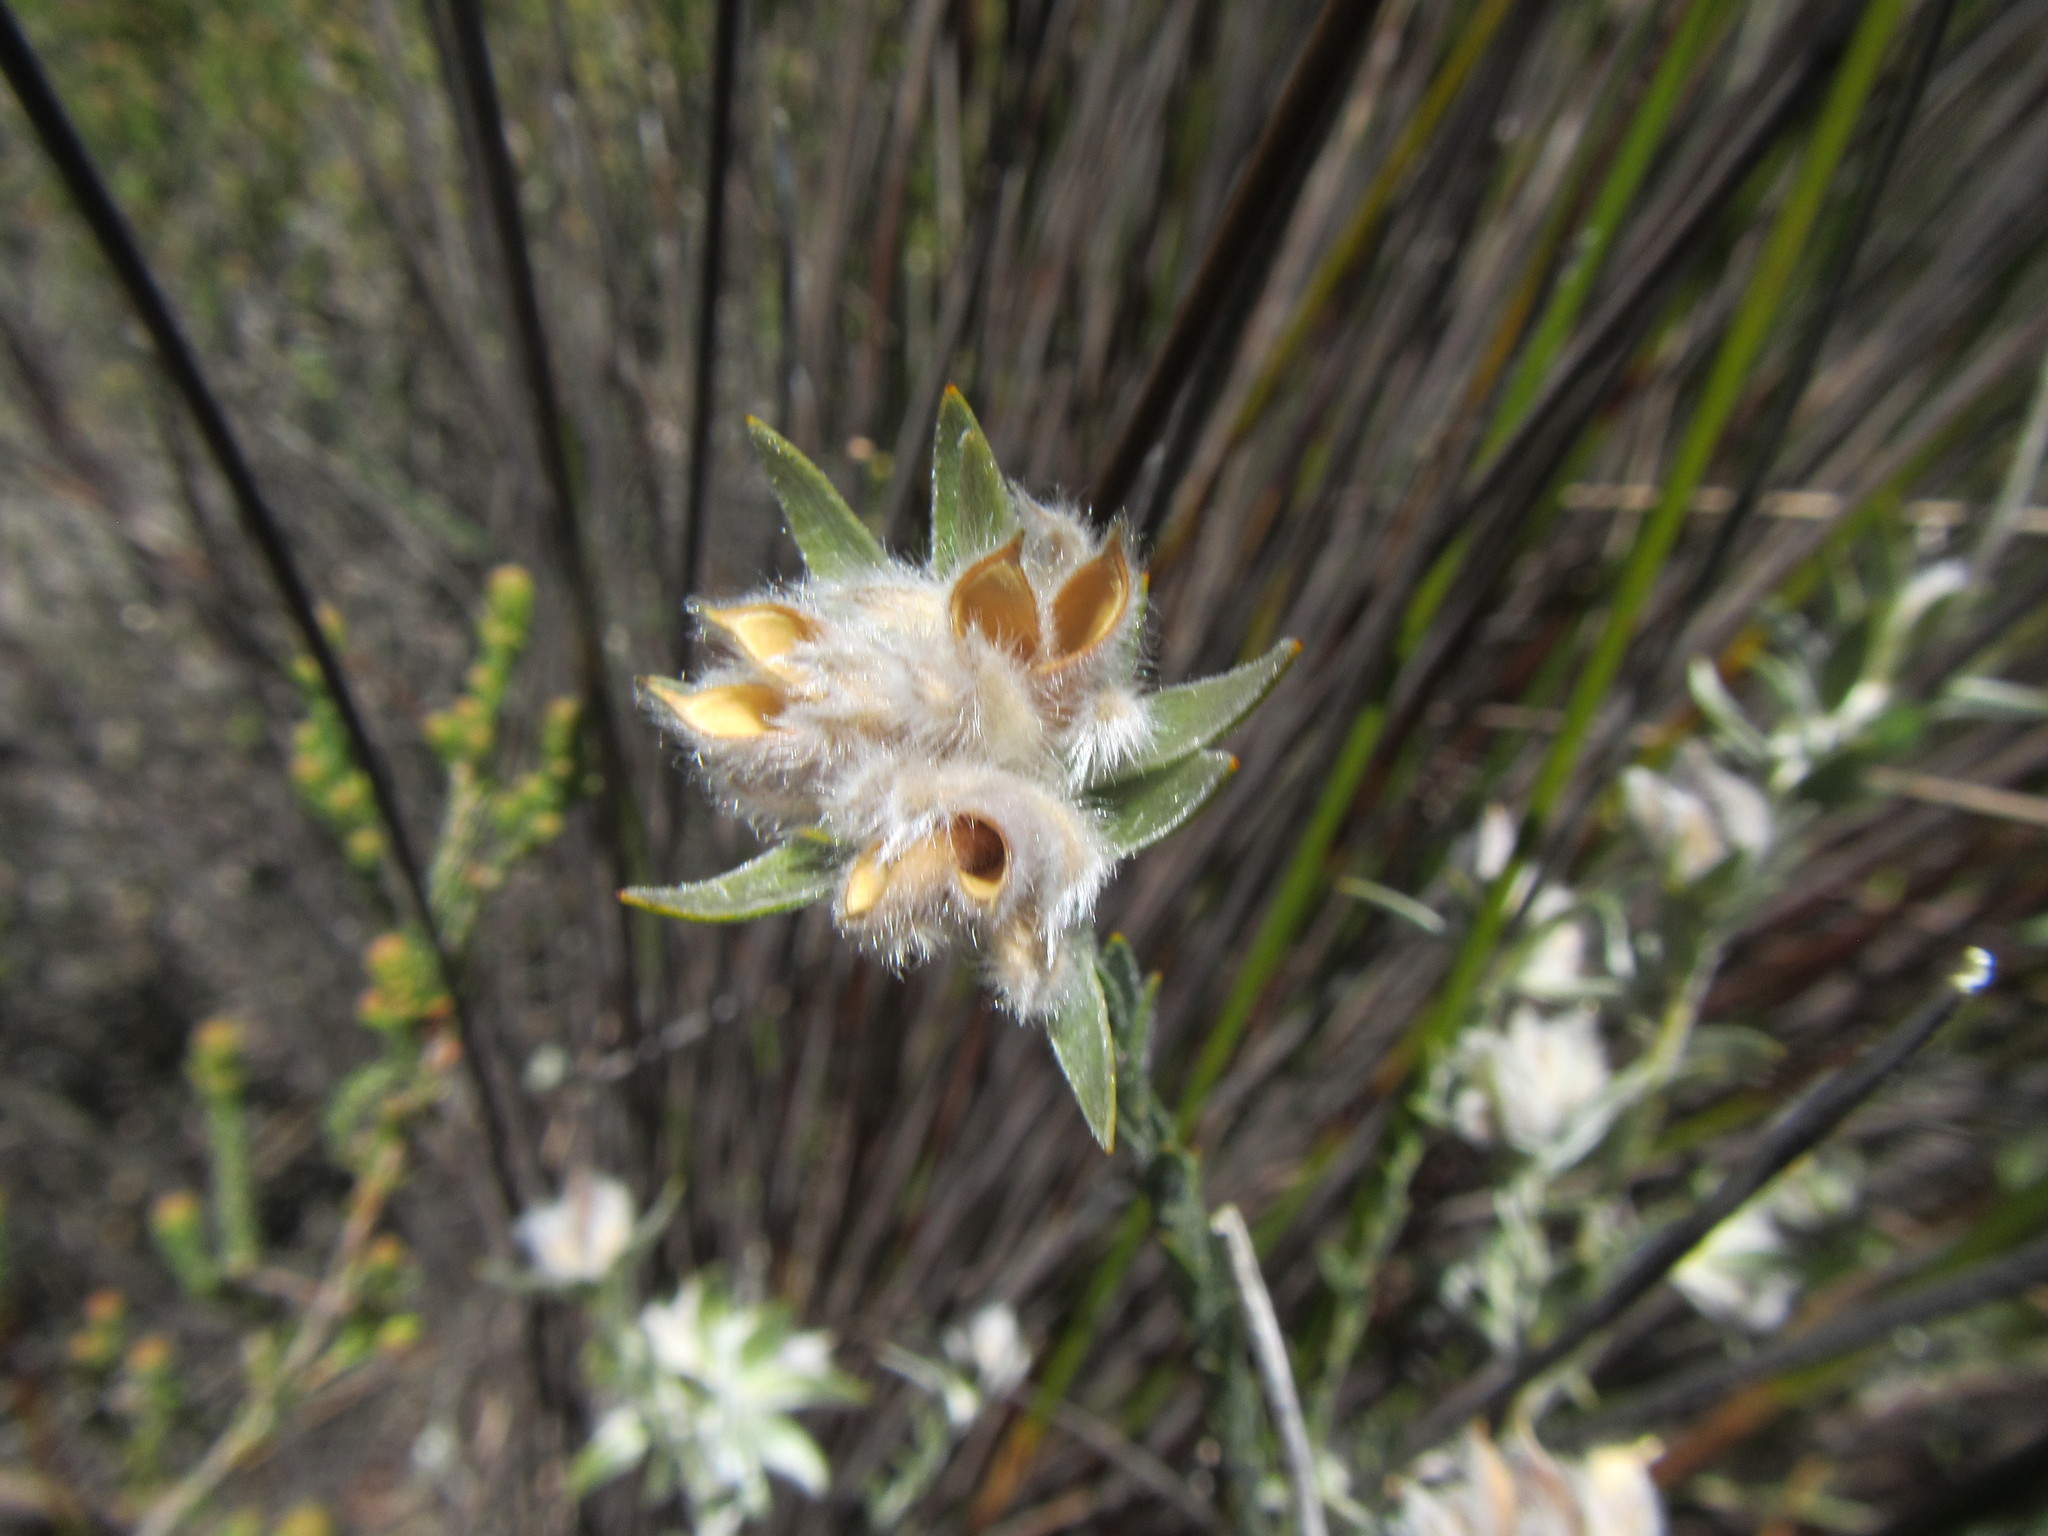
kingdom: Plantae
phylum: Tracheophyta
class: Magnoliopsida
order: Fabales
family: Fabaceae
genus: Amphithalea
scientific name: Amphithalea tomentosa
